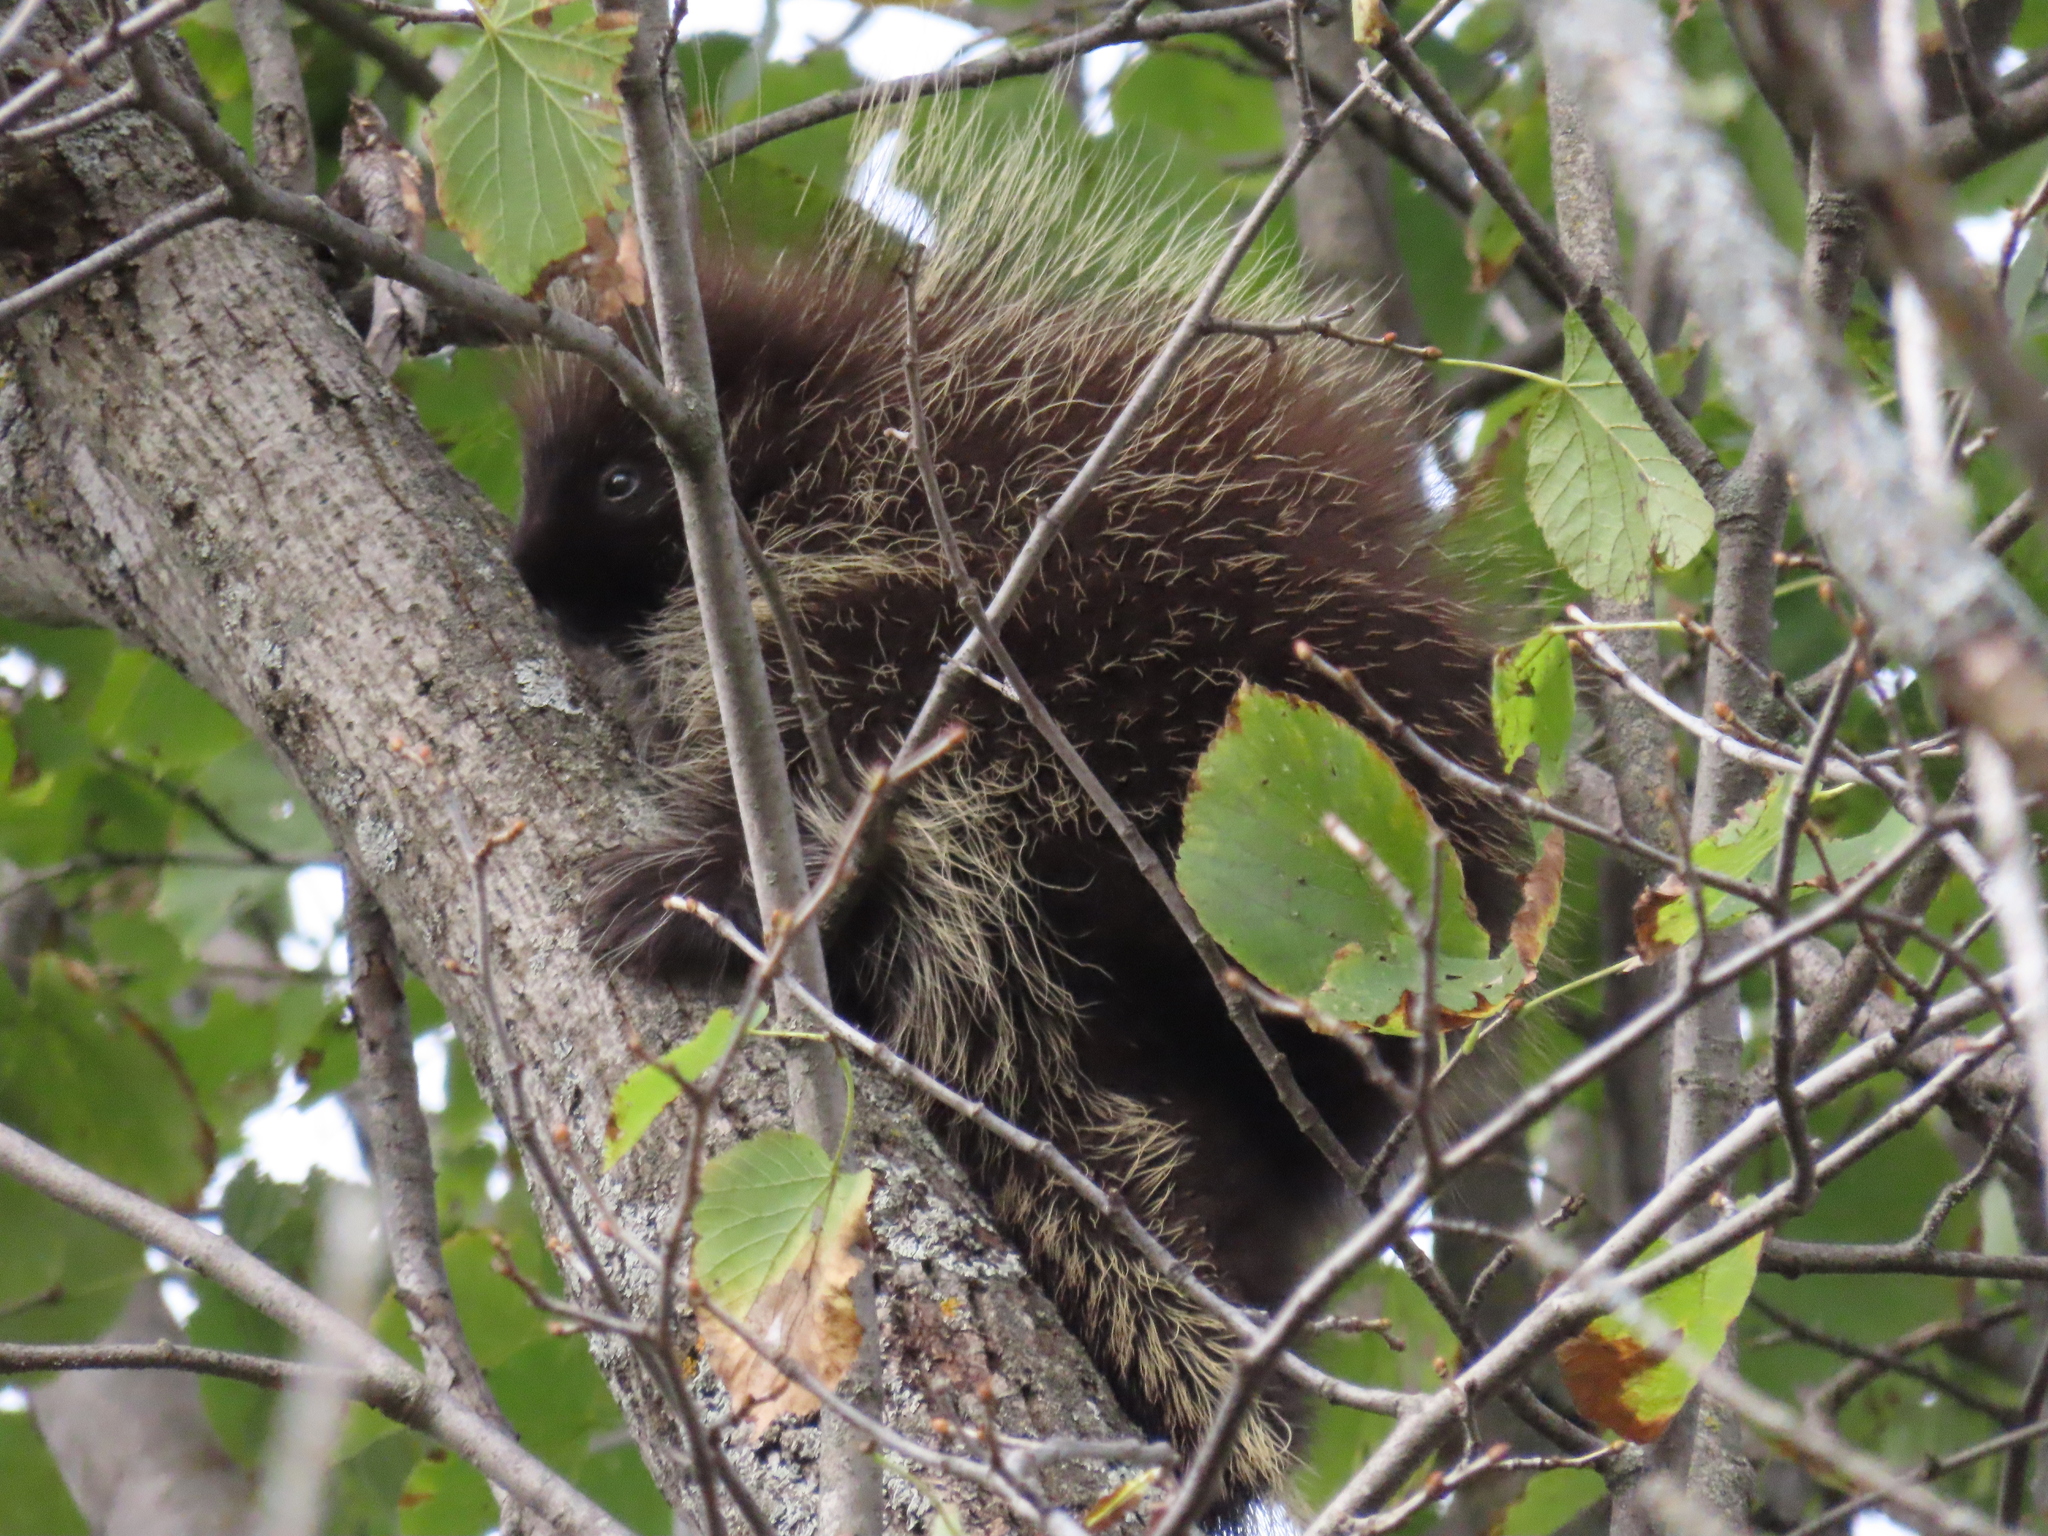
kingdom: Animalia
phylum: Chordata
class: Mammalia
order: Rodentia
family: Erethizontidae
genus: Erethizon
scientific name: Erethizon dorsatus
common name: North american porcupine
